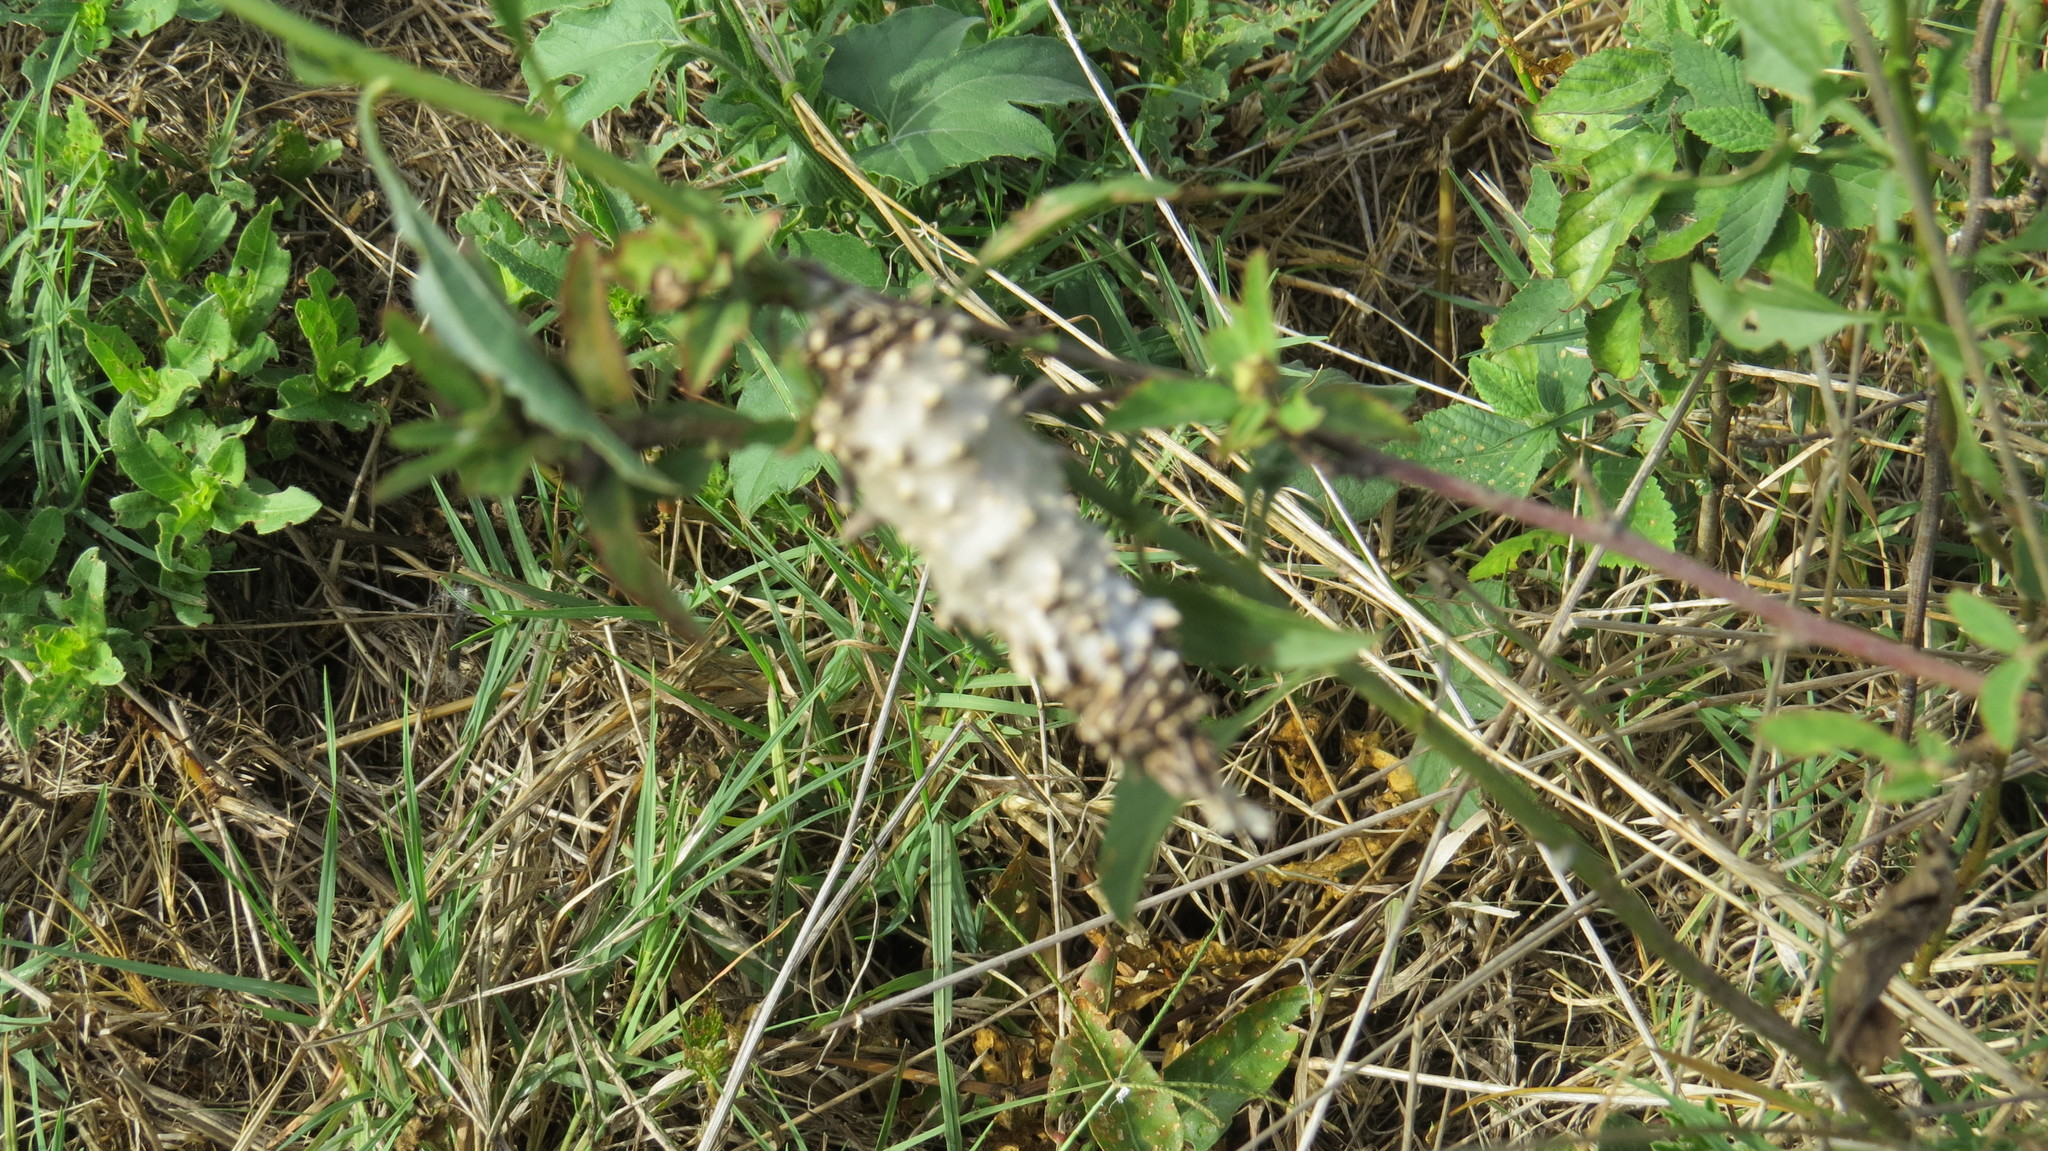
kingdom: Animalia
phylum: Arthropoda
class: Insecta
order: Lepidoptera
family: Psychidae
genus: Oiketicus
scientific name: Oiketicus
